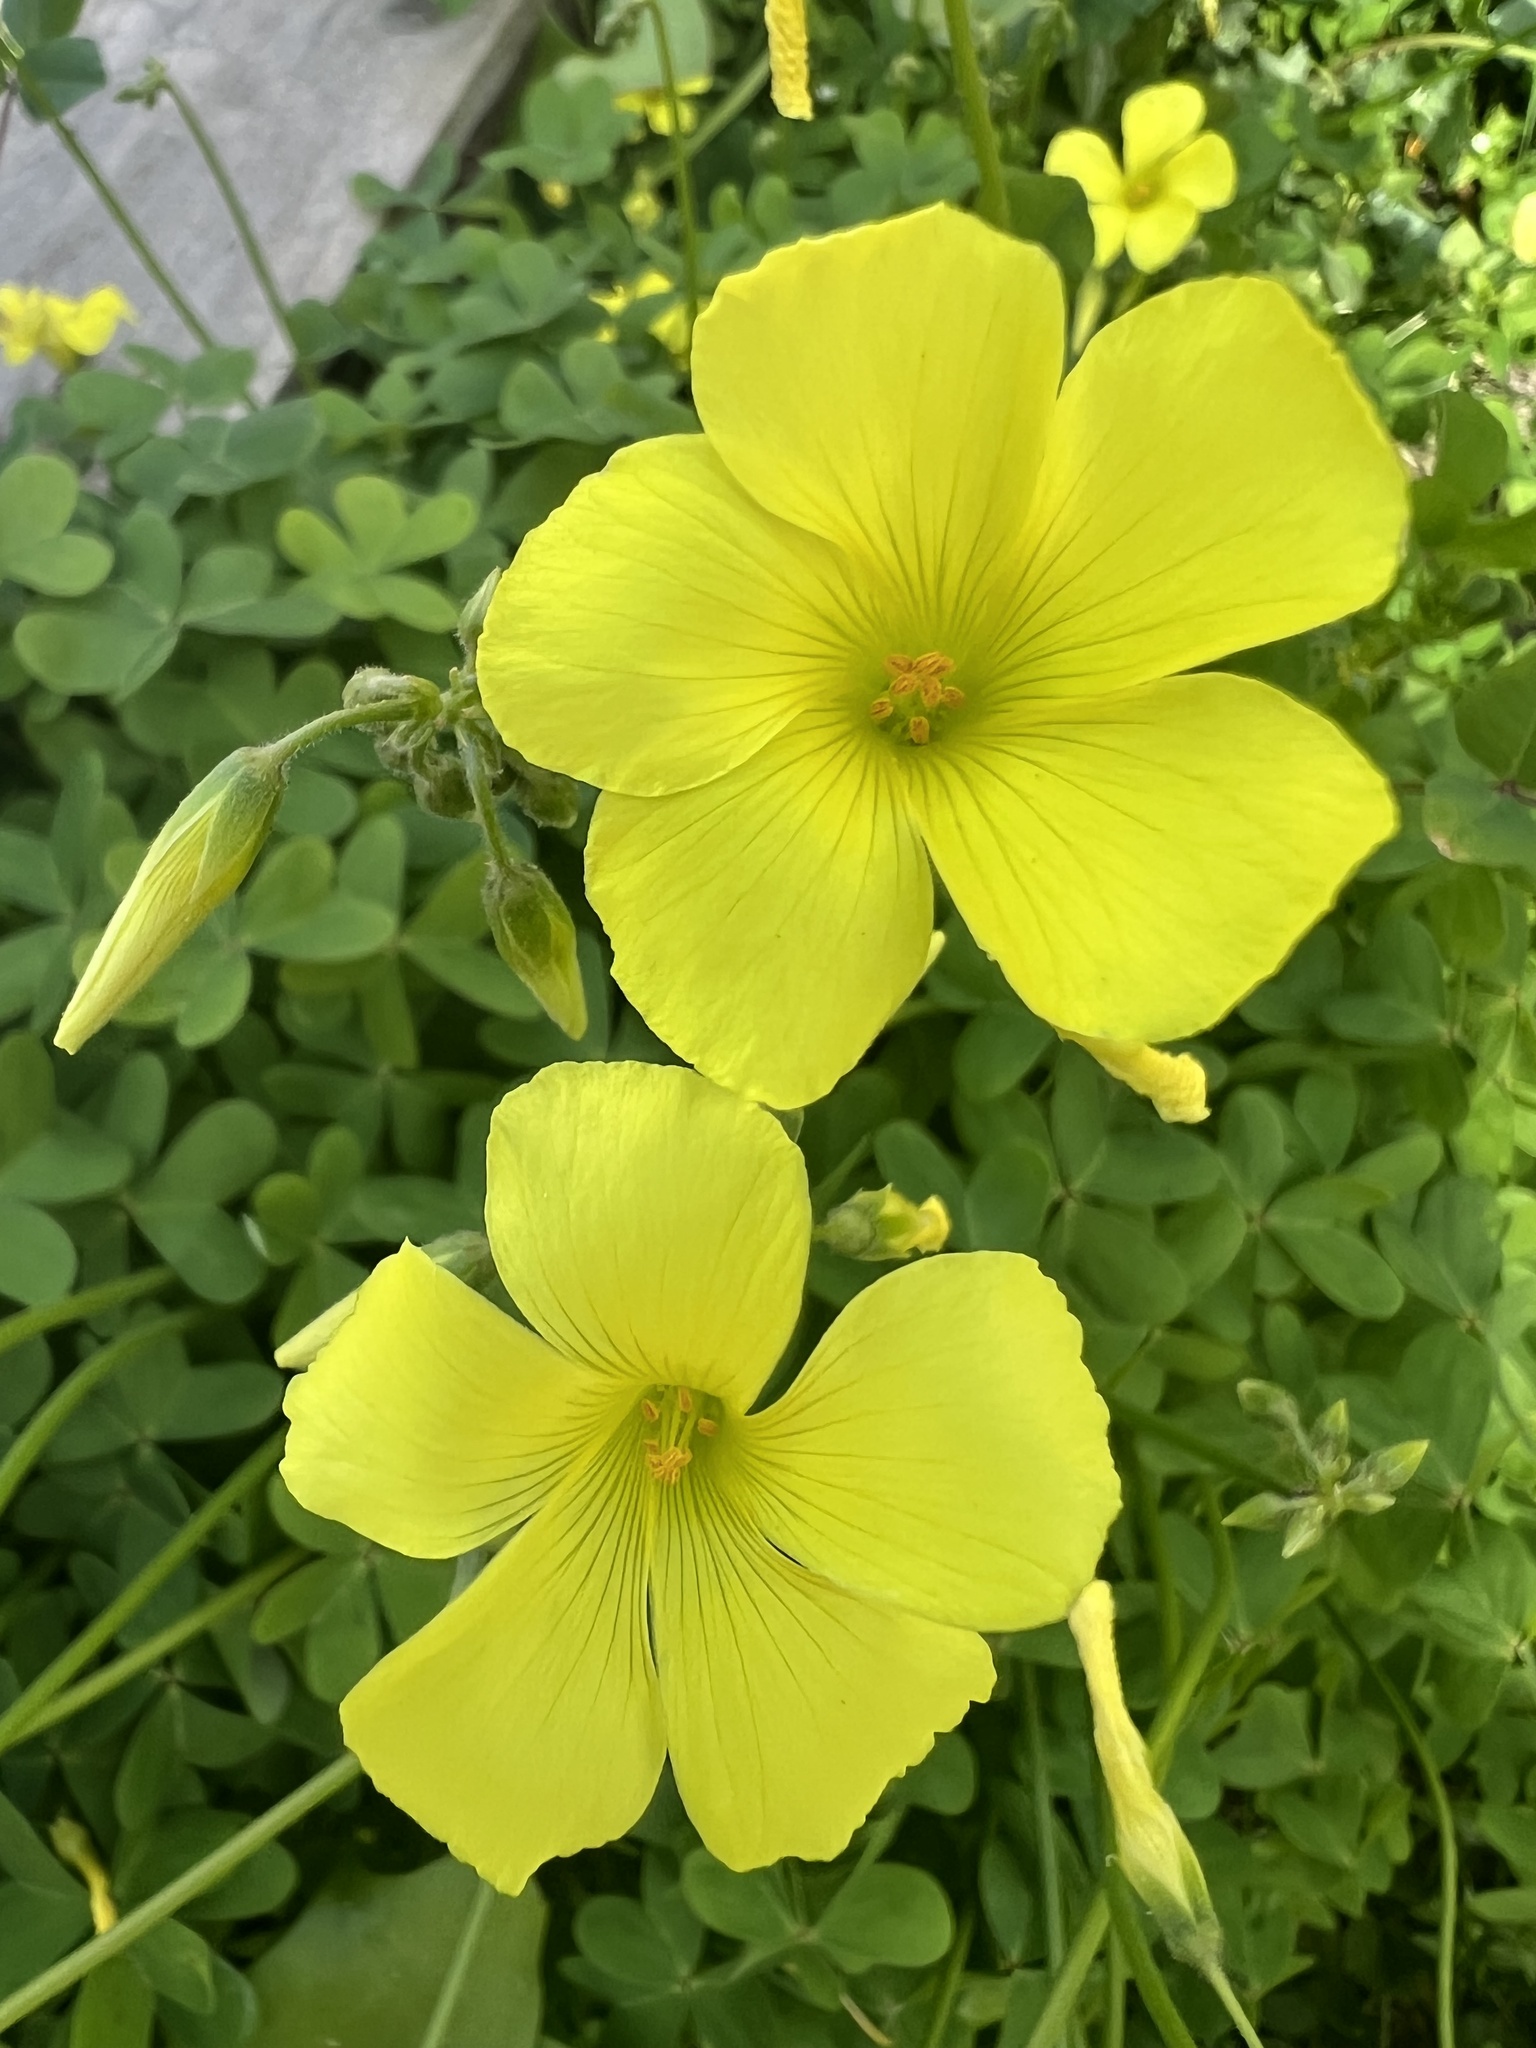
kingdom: Plantae
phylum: Tracheophyta
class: Magnoliopsida
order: Oxalidales
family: Oxalidaceae
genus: Oxalis
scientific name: Oxalis pes-caprae
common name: Bermuda-buttercup
